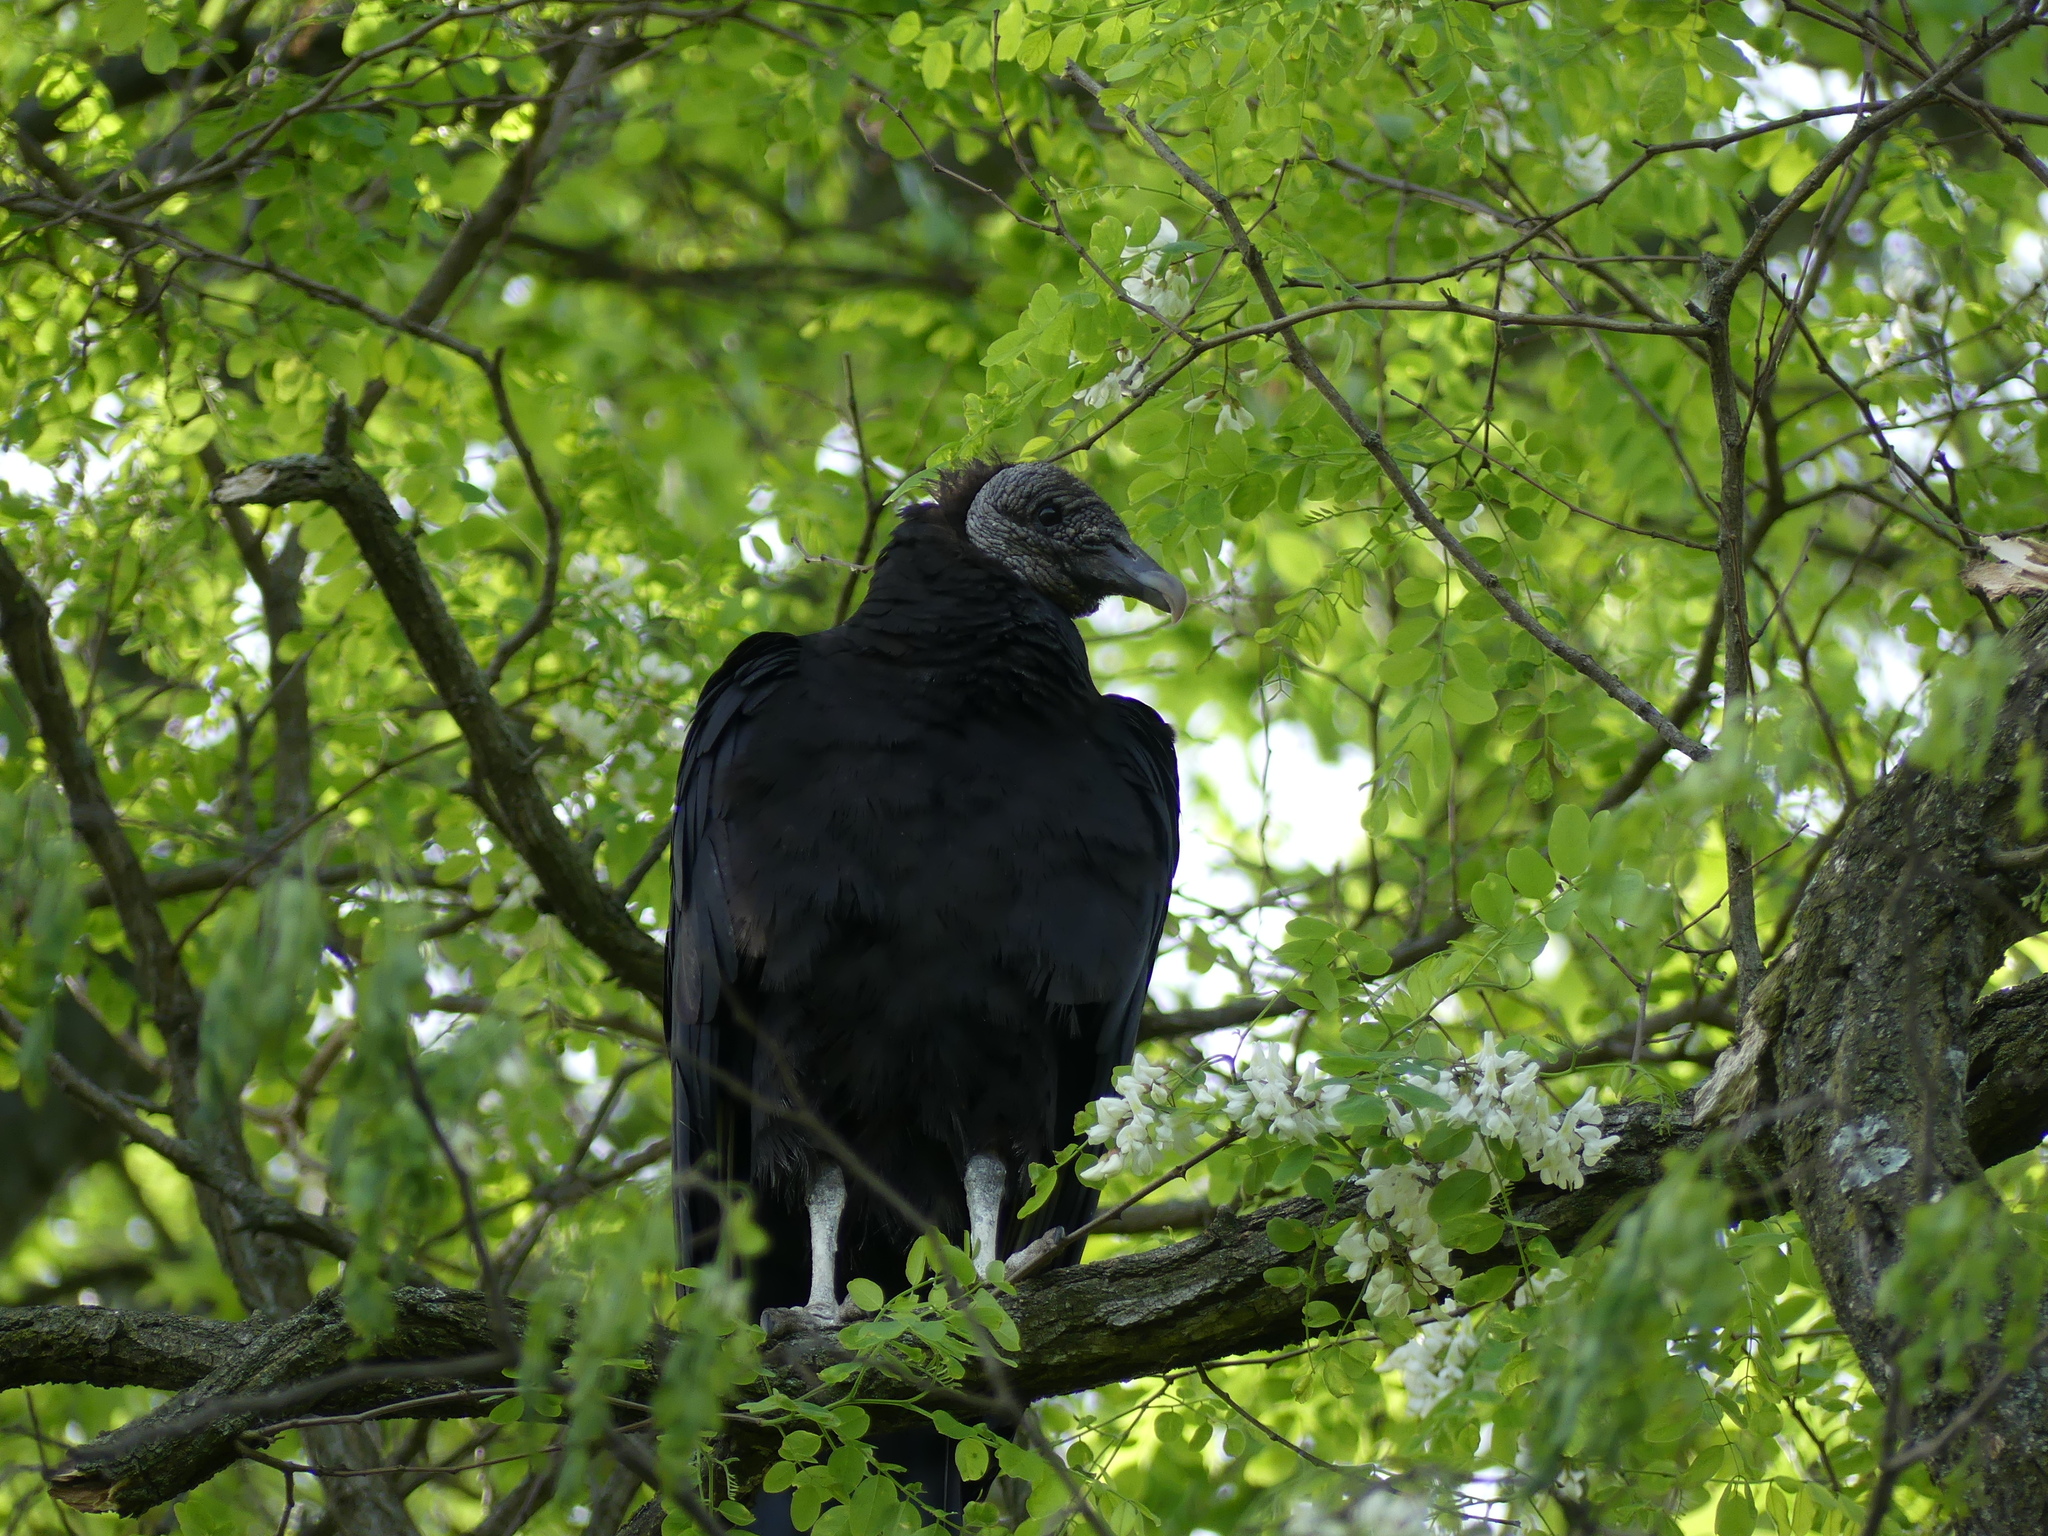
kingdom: Animalia
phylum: Chordata
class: Aves
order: Accipitriformes
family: Cathartidae
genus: Coragyps
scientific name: Coragyps atratus
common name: Black vulture
